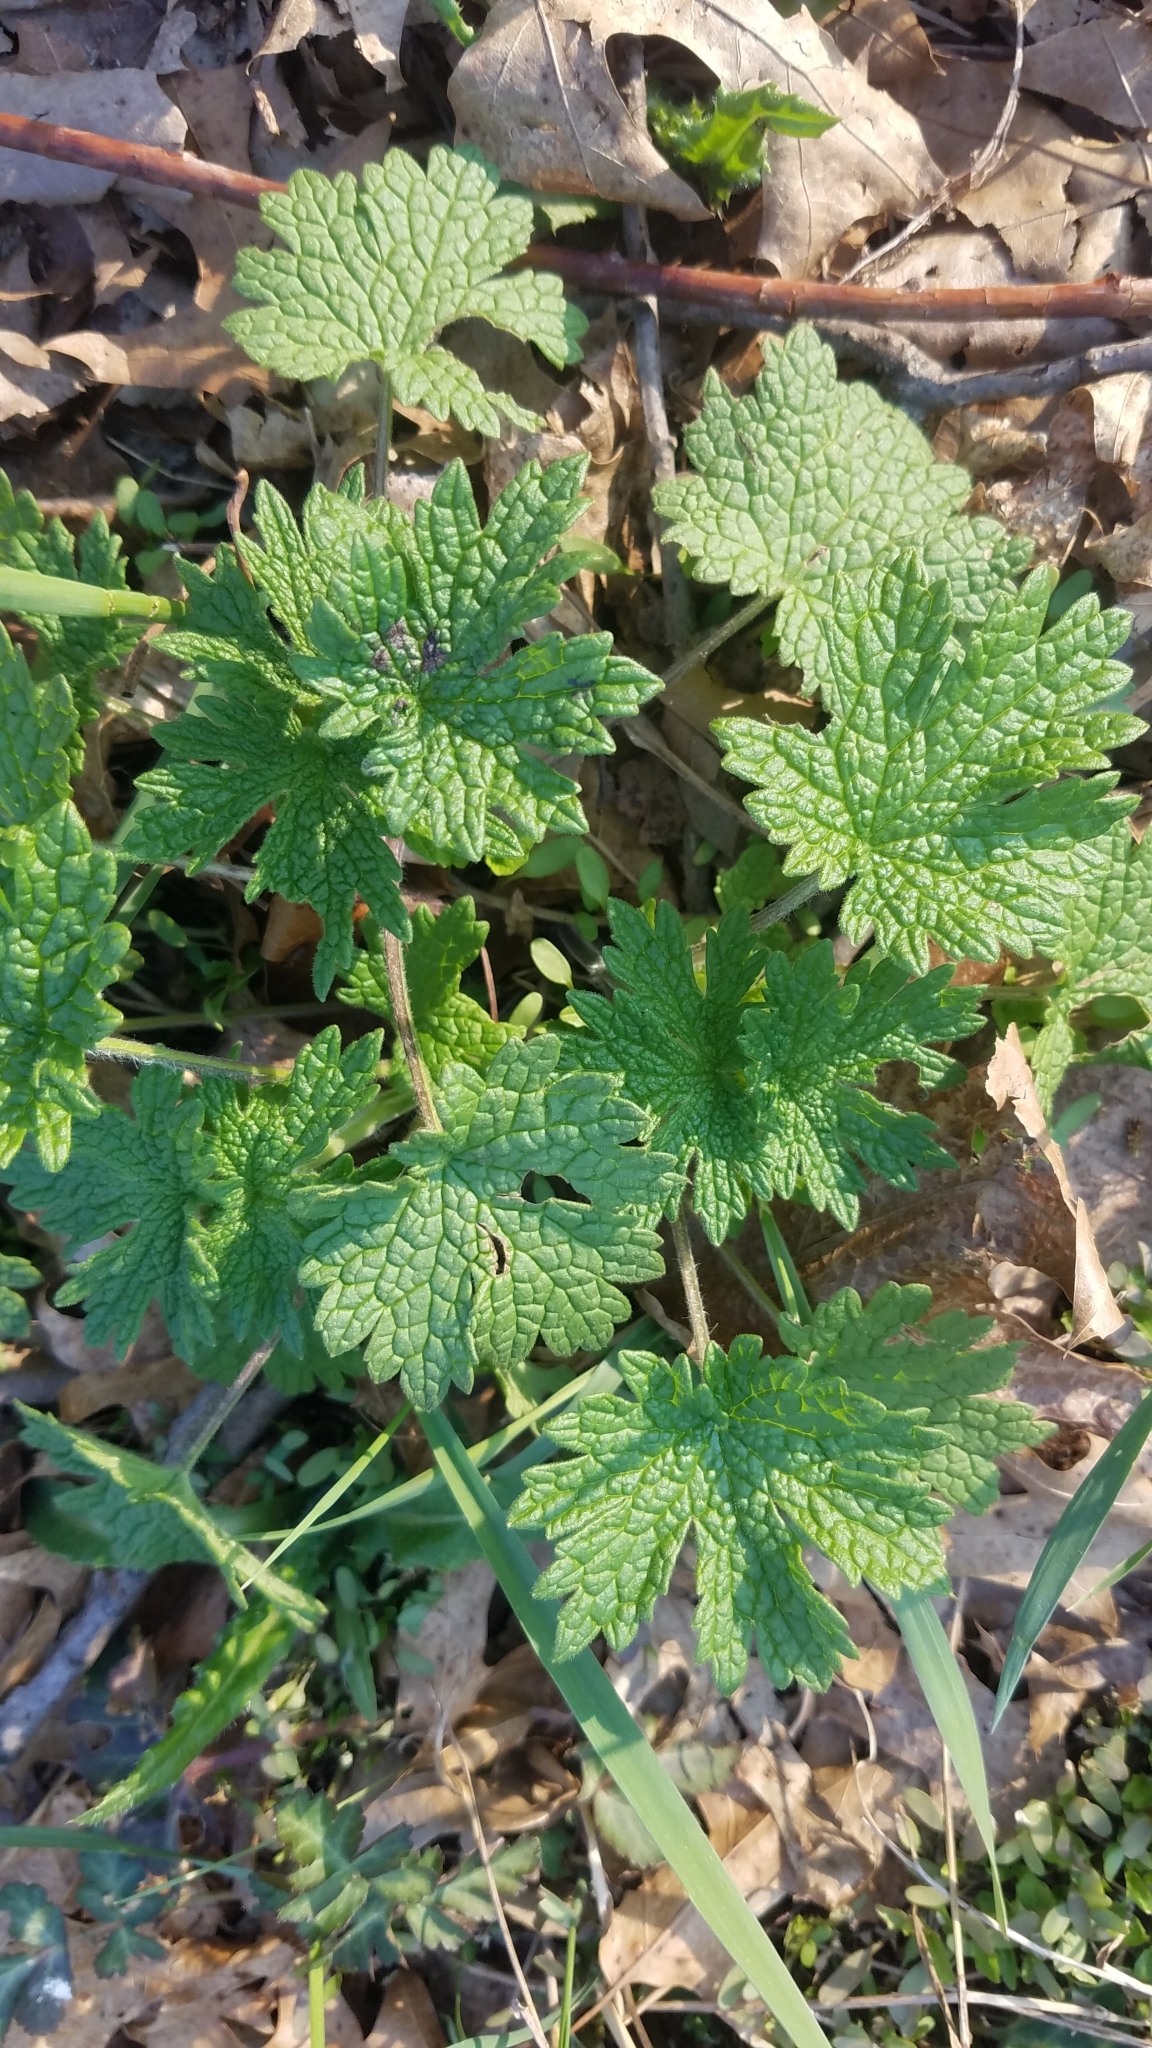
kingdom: Plantae
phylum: Tracheophyta
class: Magnoliopsida
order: Lamiales
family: Lamiaceae
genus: Leonurus
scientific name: Leonurus cardiaca
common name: Motherwort
